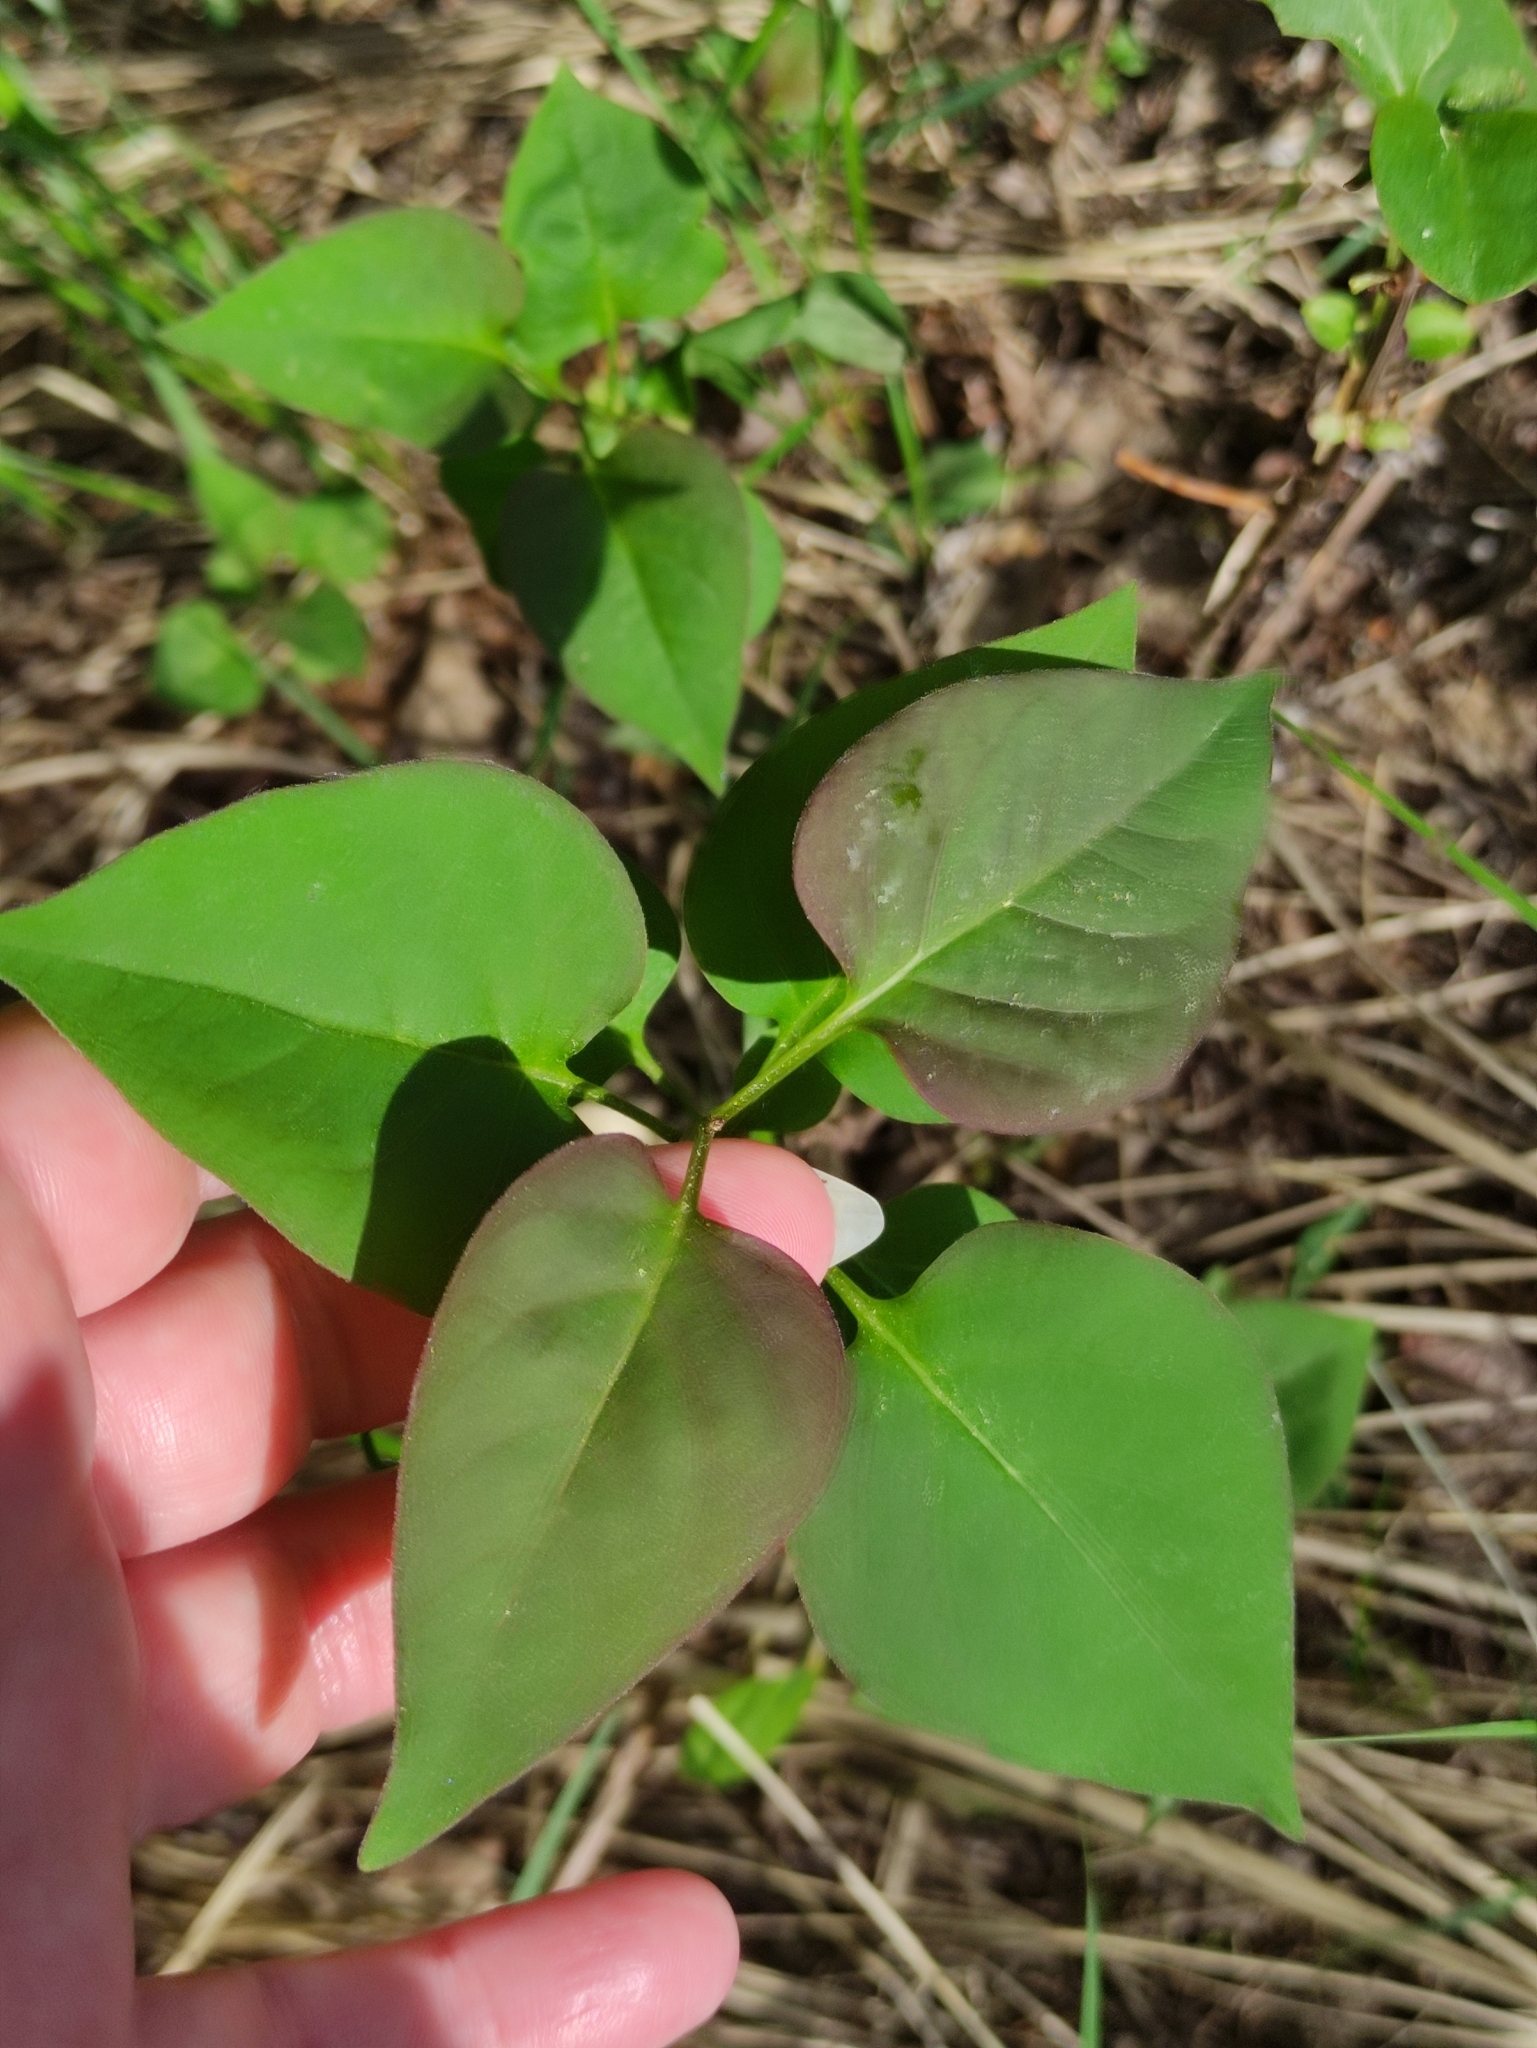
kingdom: Plantae
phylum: Tracheophyta
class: Magnoliopsida
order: Lamiales
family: Oleaceae
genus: Syringa
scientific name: Syringa vulgaris
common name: Common lilac
